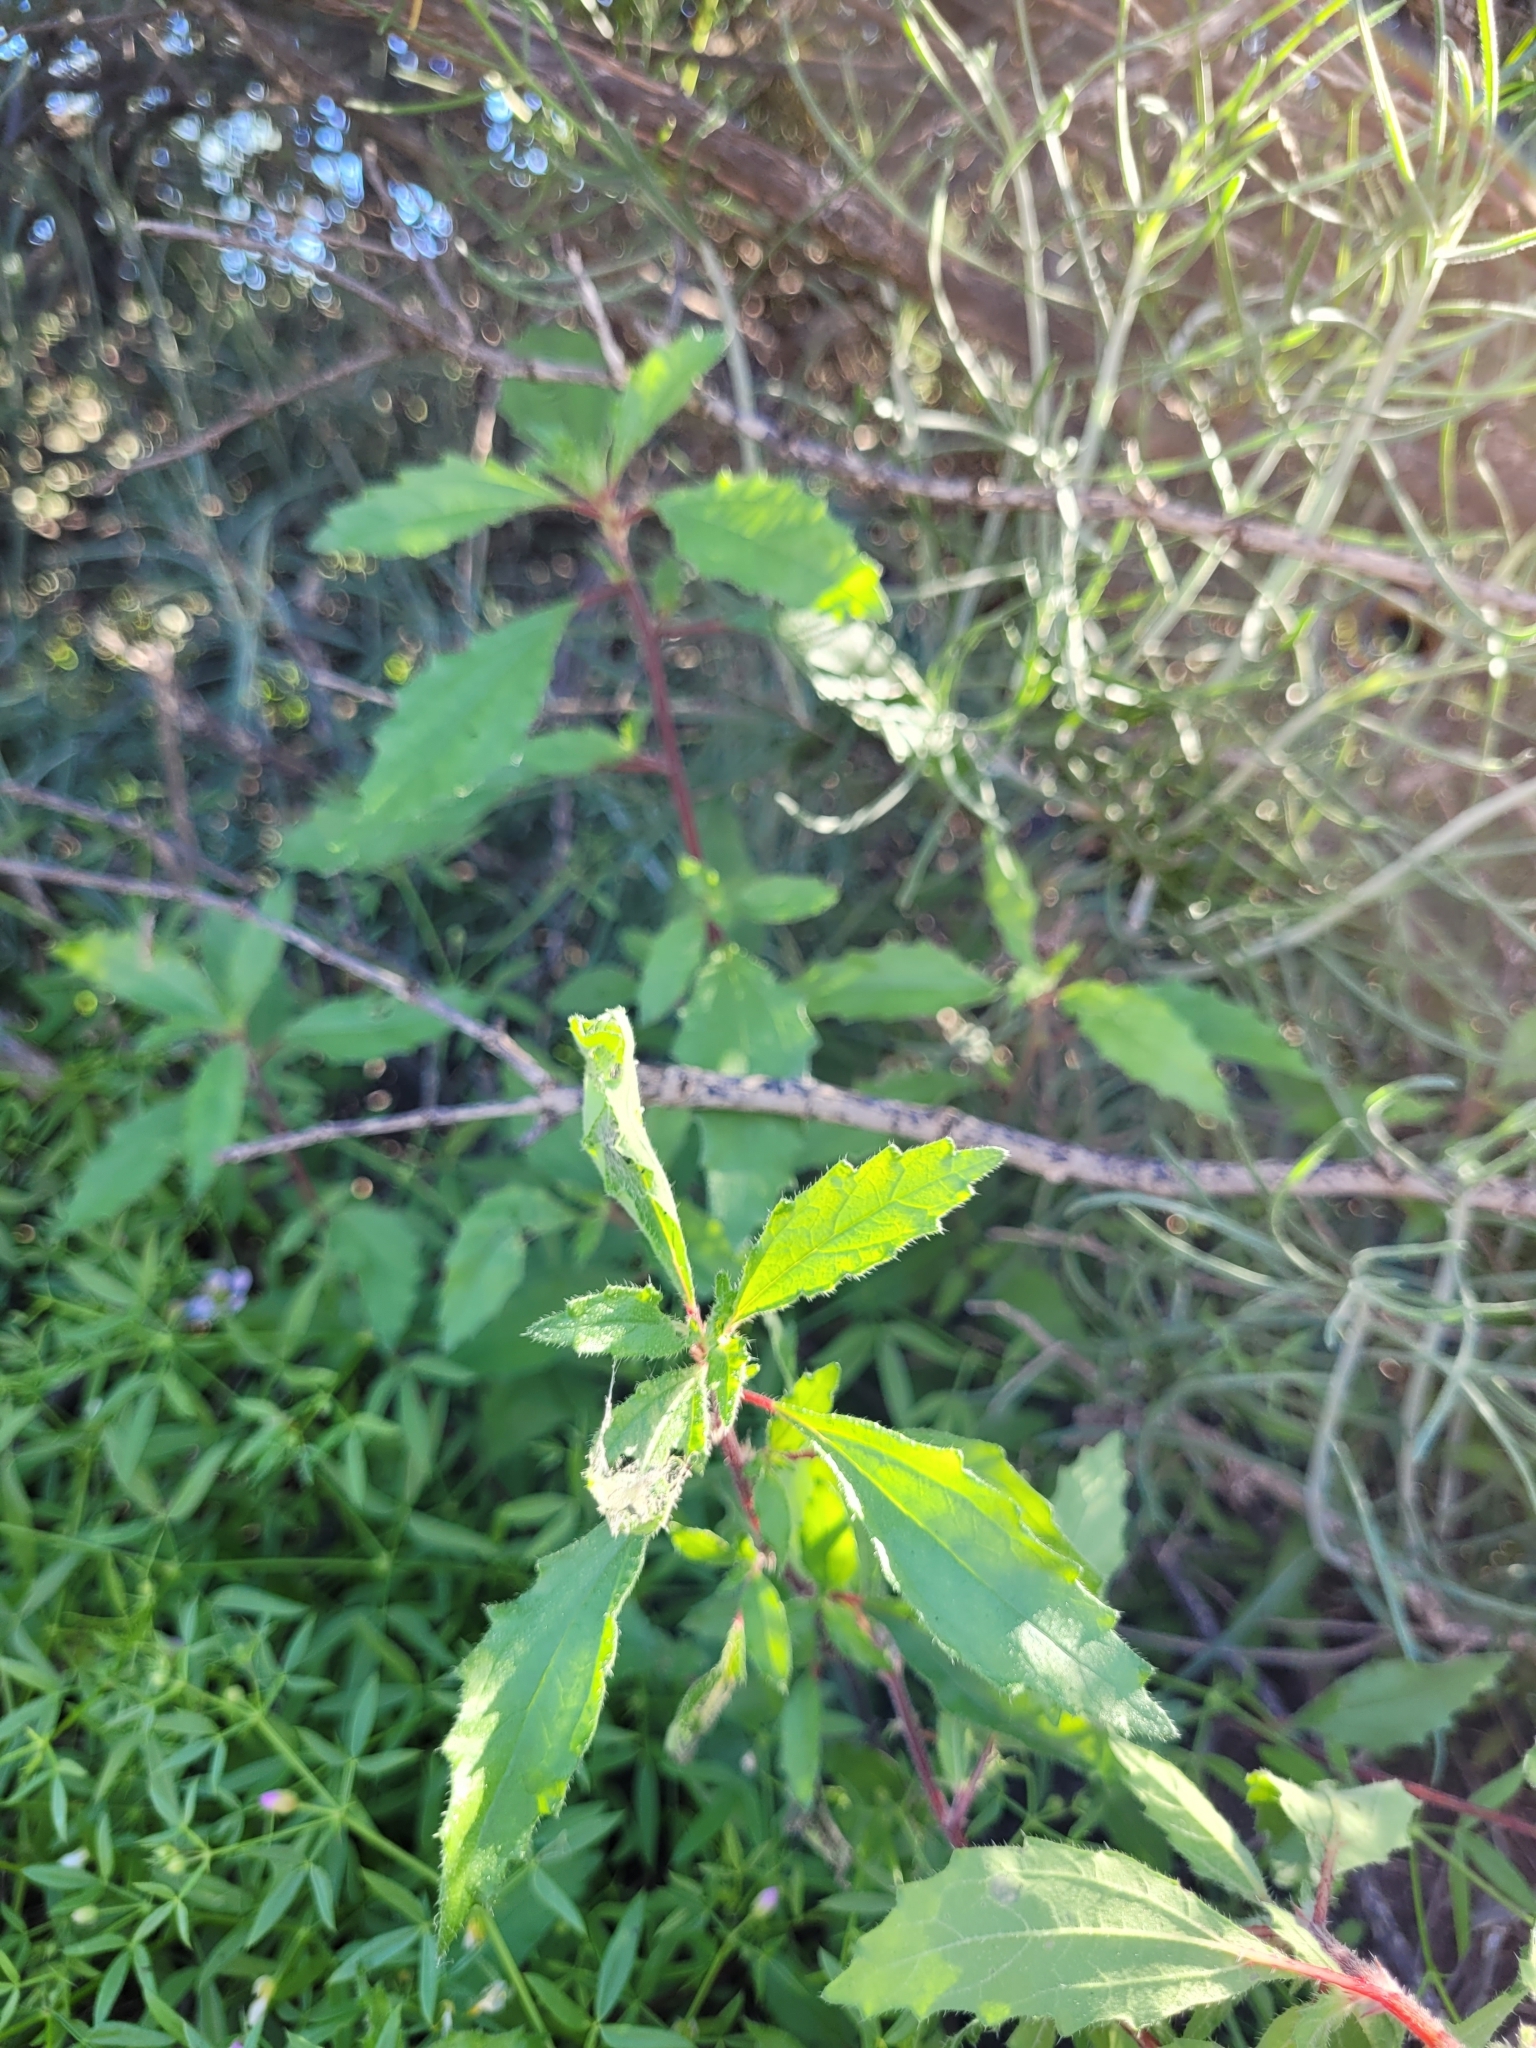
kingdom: Plantae
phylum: Tracheophyta
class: Magnoliopsida
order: Rosales
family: Urticaceae
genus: Forsskaolea
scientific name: Forsskaolea angustifolia
